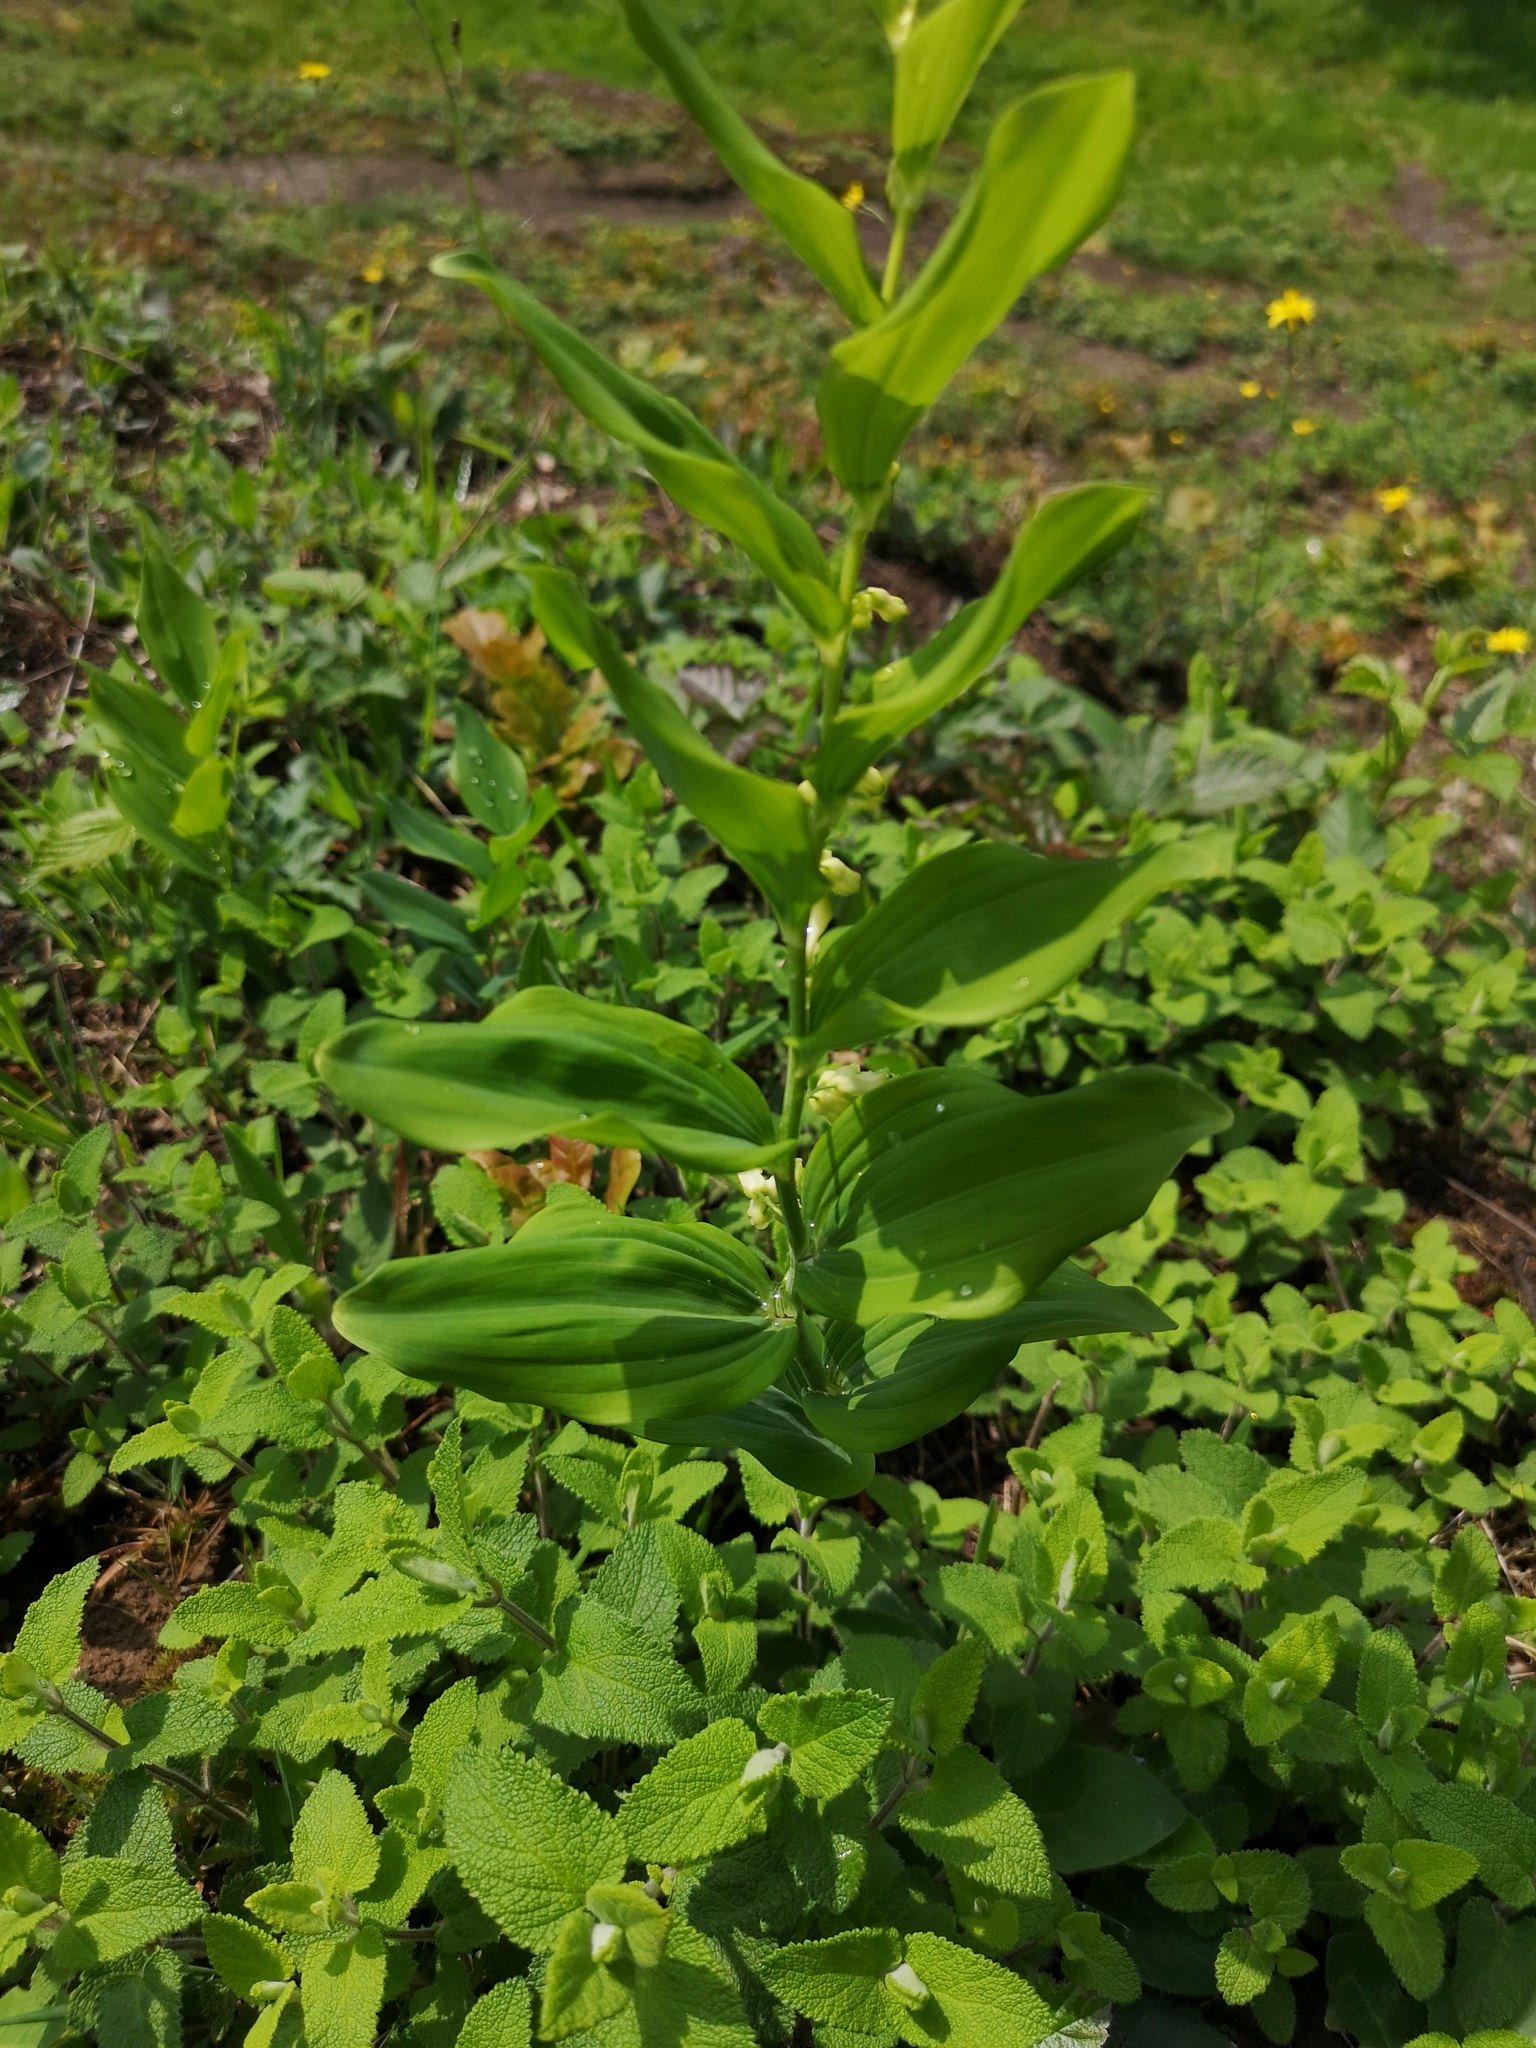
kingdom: Plantae
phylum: Tracheophyta
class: Liliopsida
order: Asparagales
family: Asparagaceae
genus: Polygonatum
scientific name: Polygonatum multiflorum
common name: Solomon's-seal
